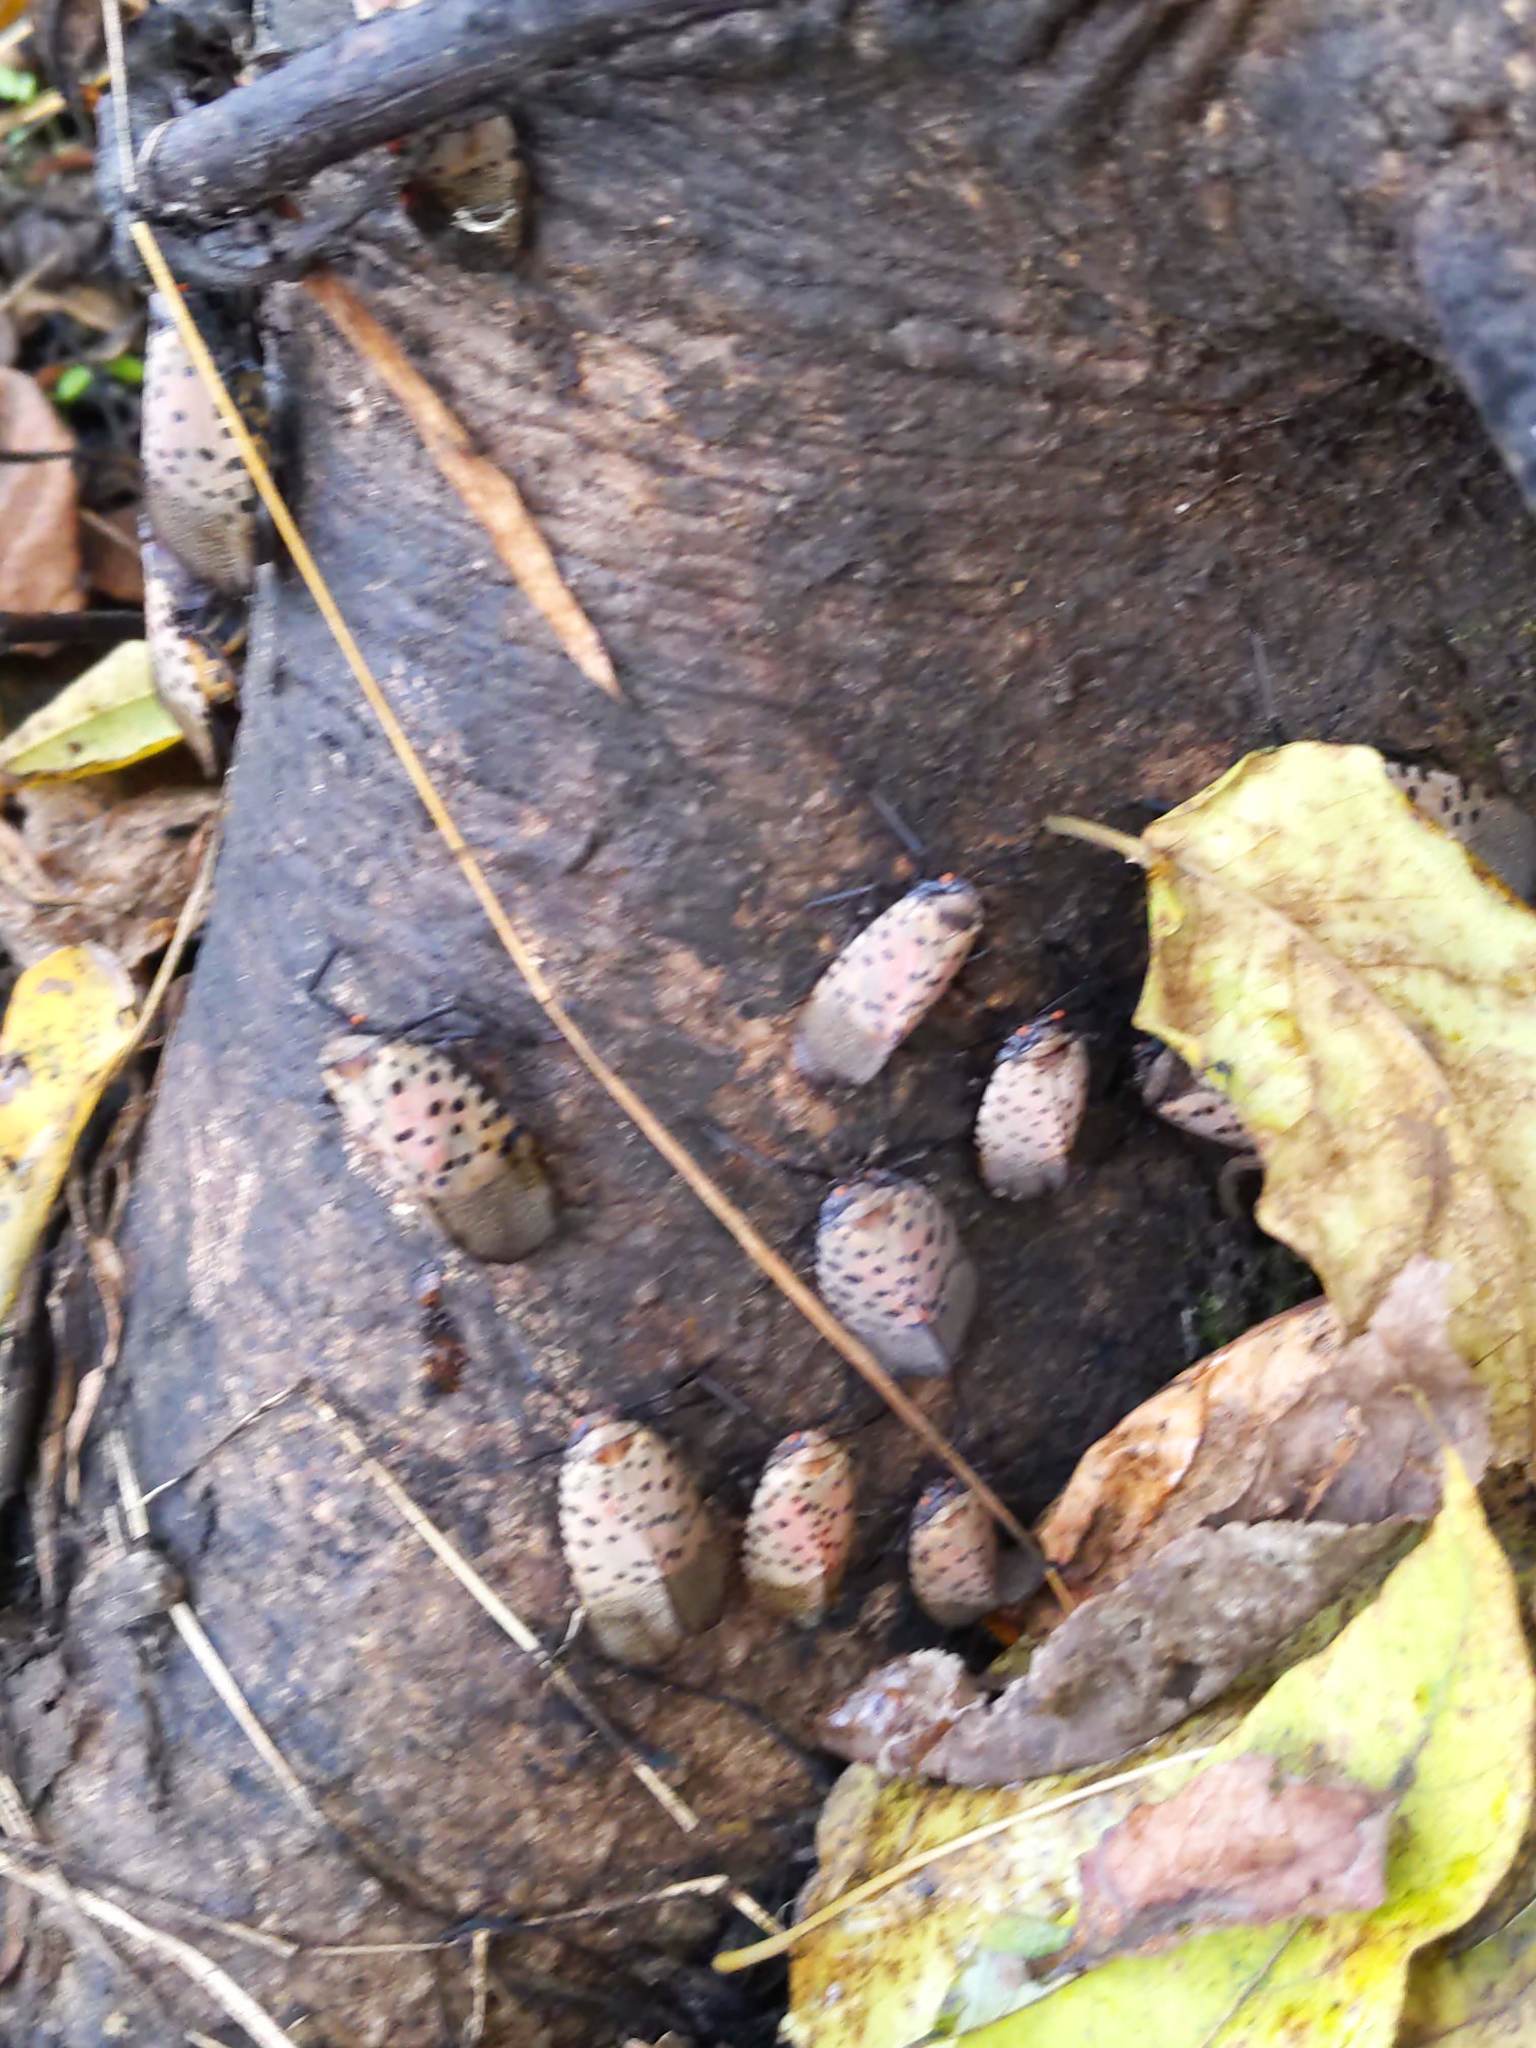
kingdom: Animalia
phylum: Arthropoda
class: Insecta
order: Hemiptera
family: Fulgoridae
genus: Lycorma
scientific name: Lycorma delicatula
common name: Spotted lanternfly
